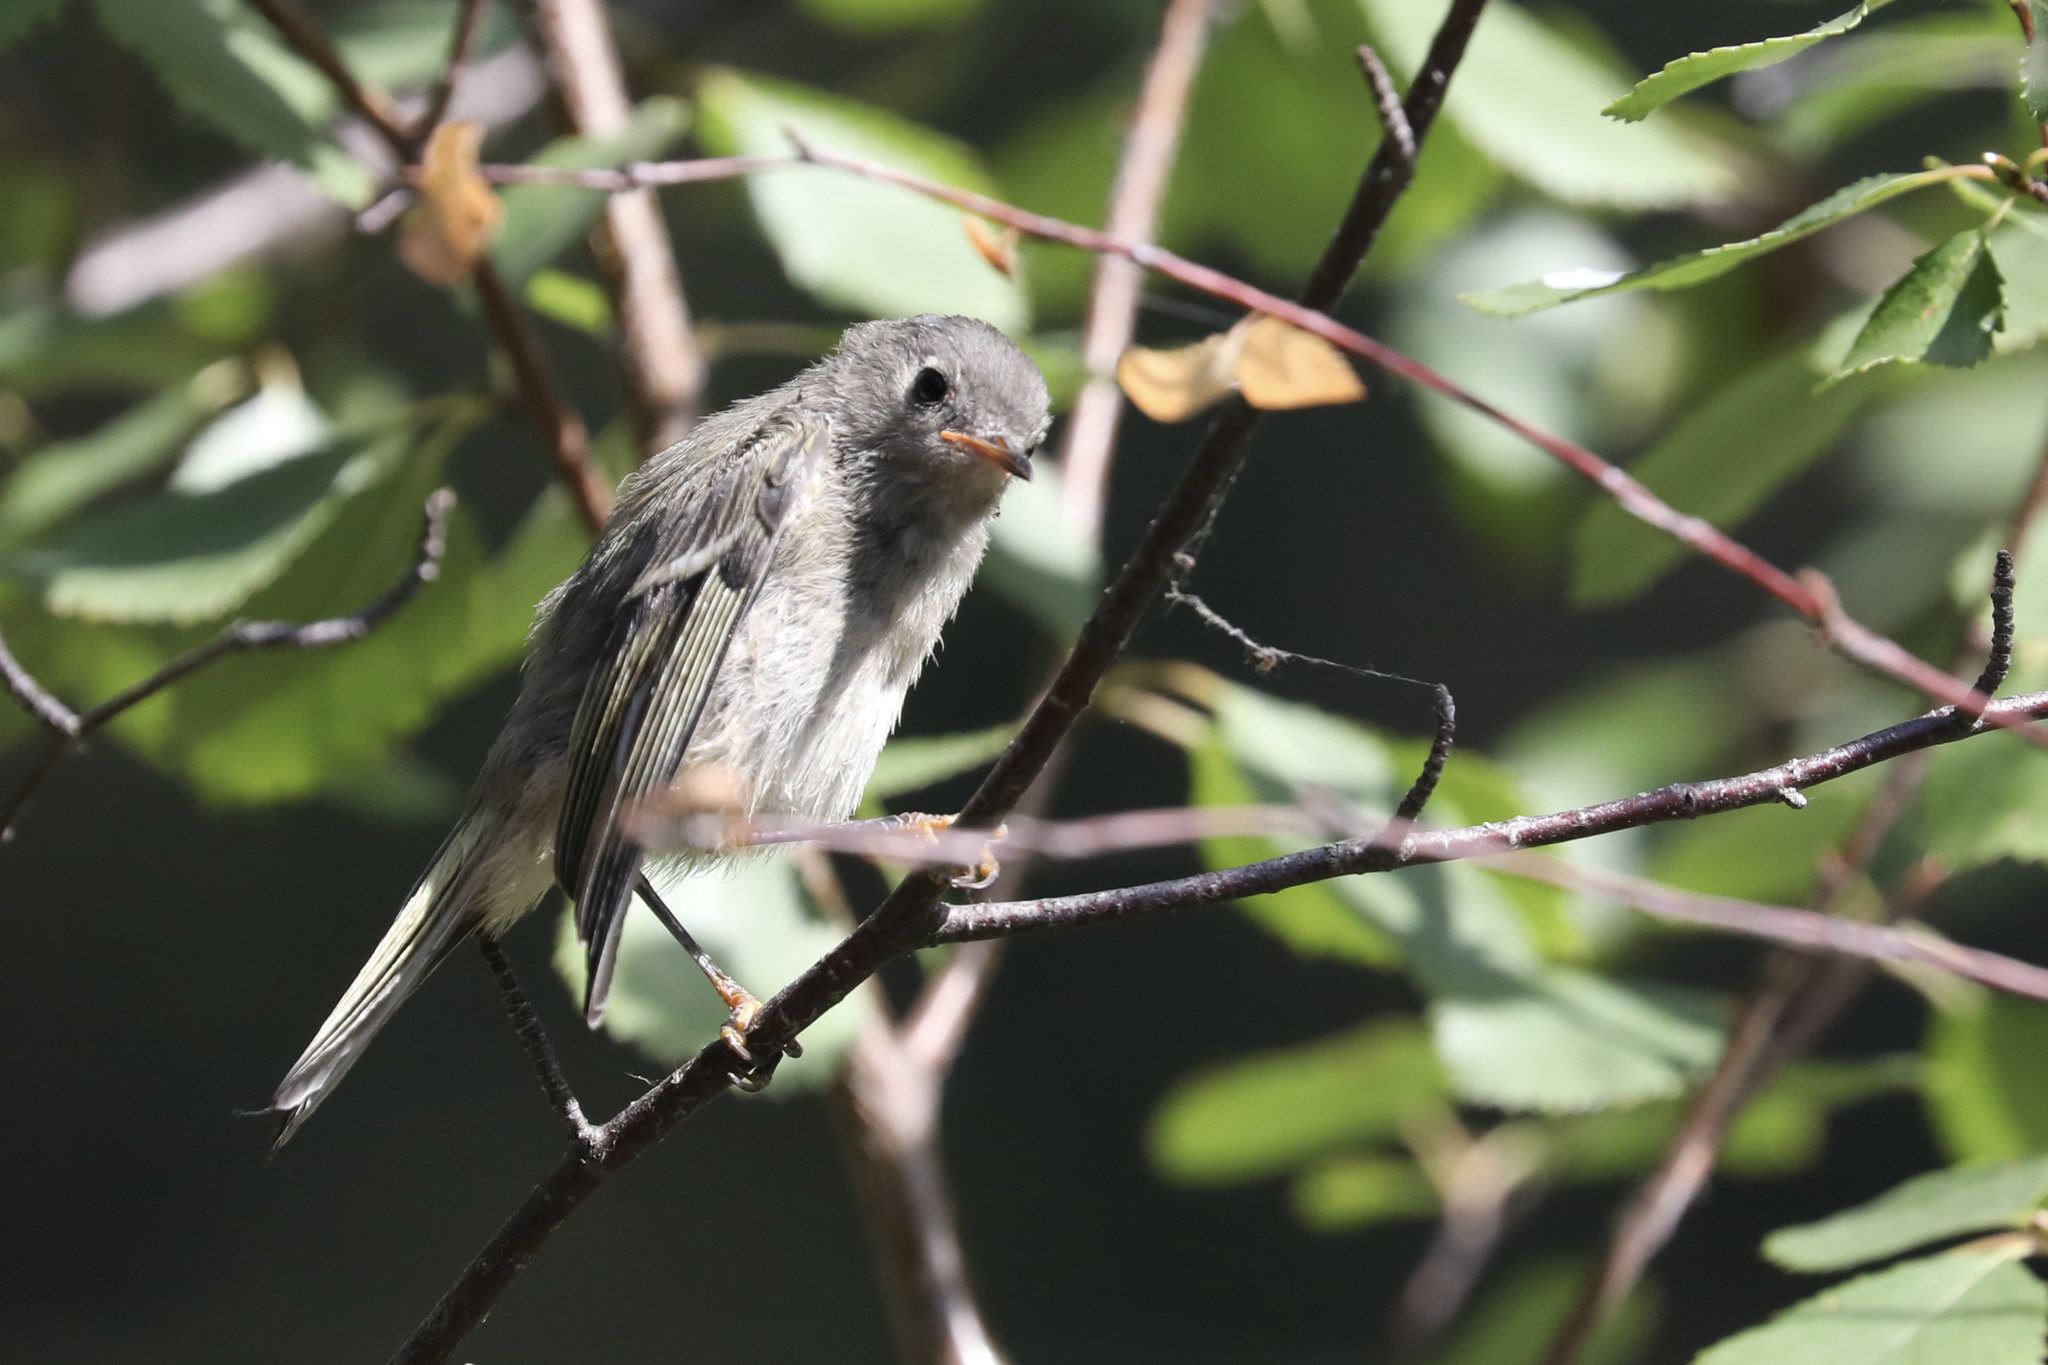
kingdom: Animalia
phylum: Chordata
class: Aves
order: Passeriformes
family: Regulidae
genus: Regulus
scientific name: Regulus calendula
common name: Ruby-crowned kinglet
